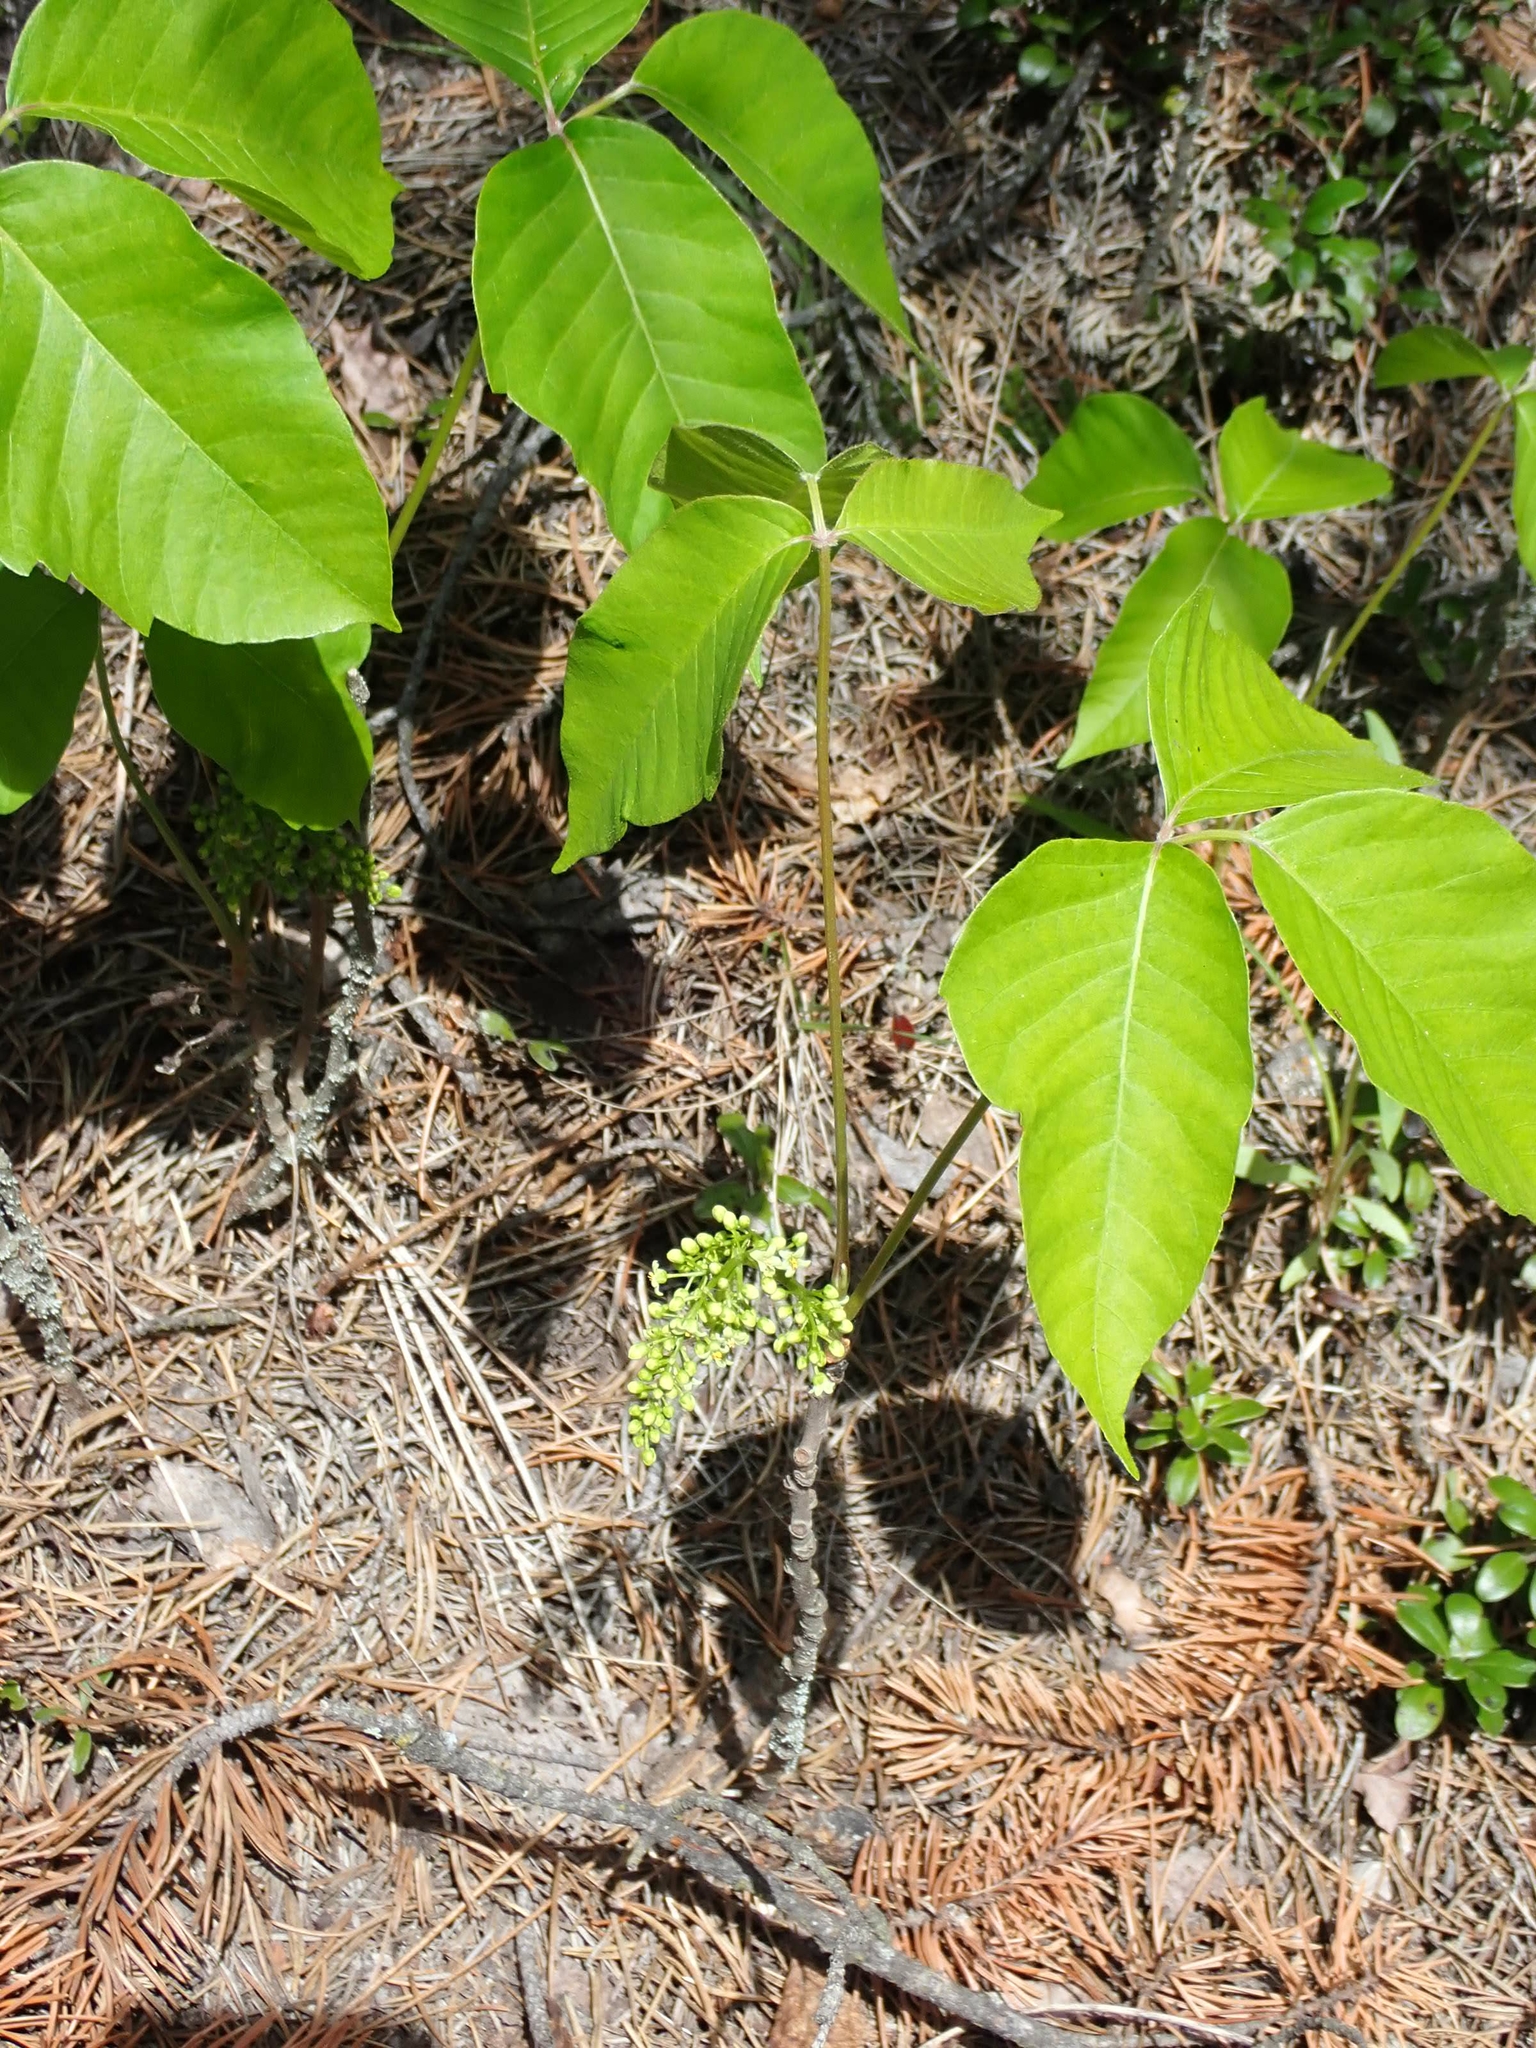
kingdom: Plantae
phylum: Tracheophyta
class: Magnoliopsida
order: Sapindales
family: Anacardiaceae
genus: Toxicodendron
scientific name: Toxicodendron rydbergii
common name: Rydberg's poison-ivy
